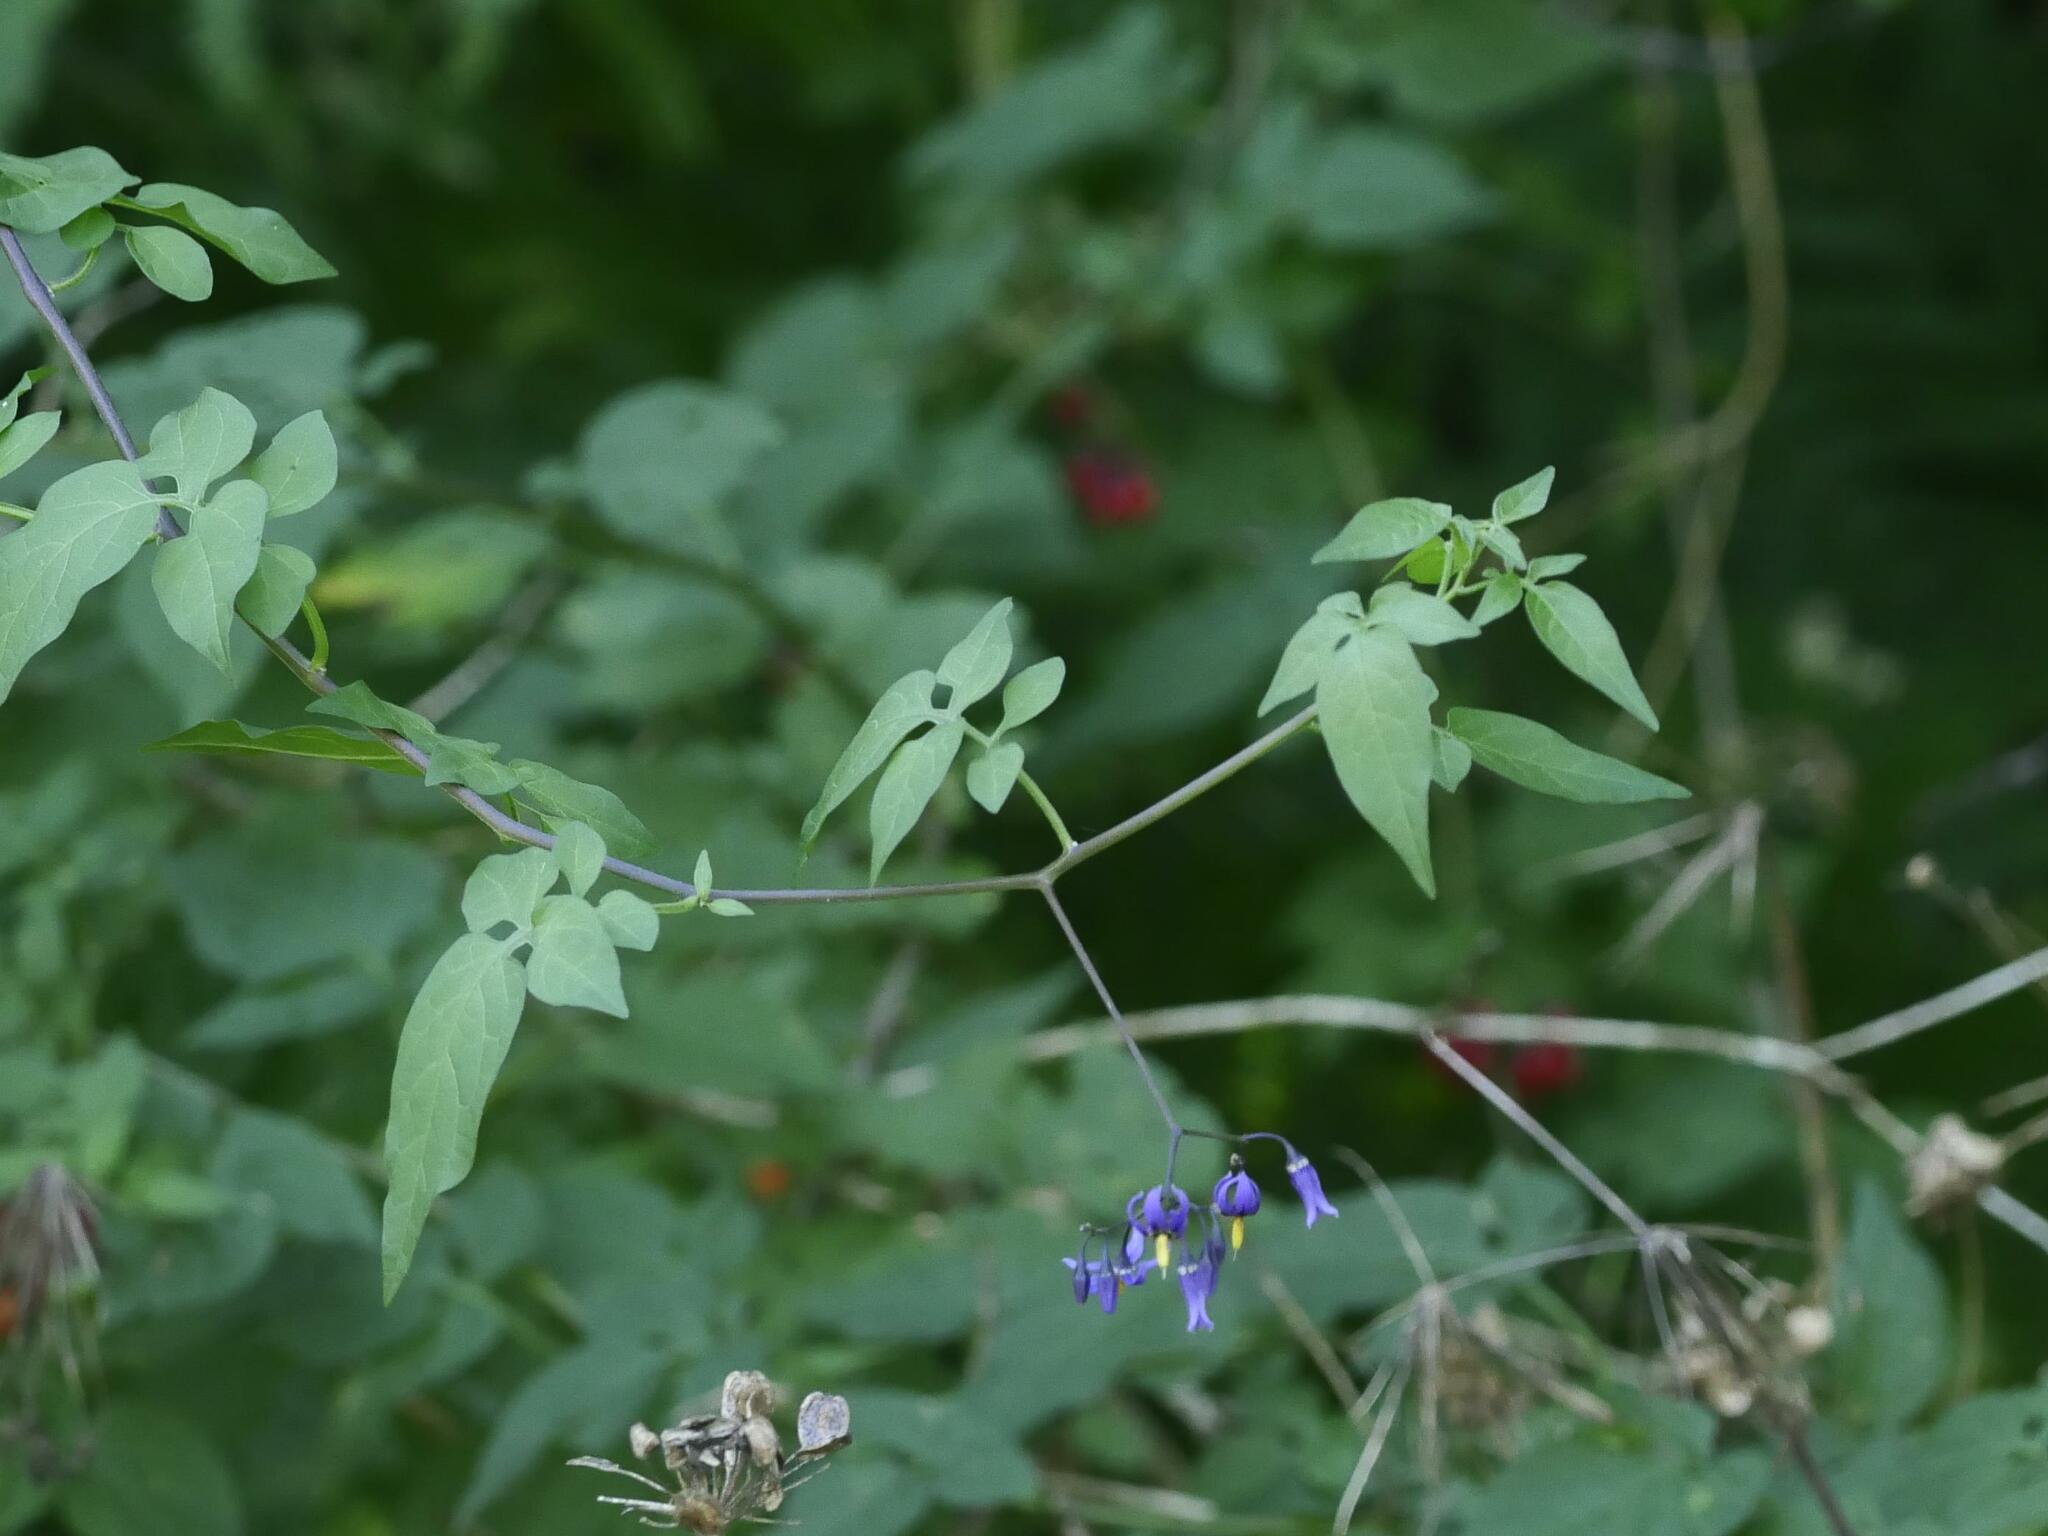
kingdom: Plantae
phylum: Tracheophyta
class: Magnoliopsida
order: Solanales
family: Solanaceae
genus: Solanum
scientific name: Solanum dulcamara
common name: Climbing nightshade
